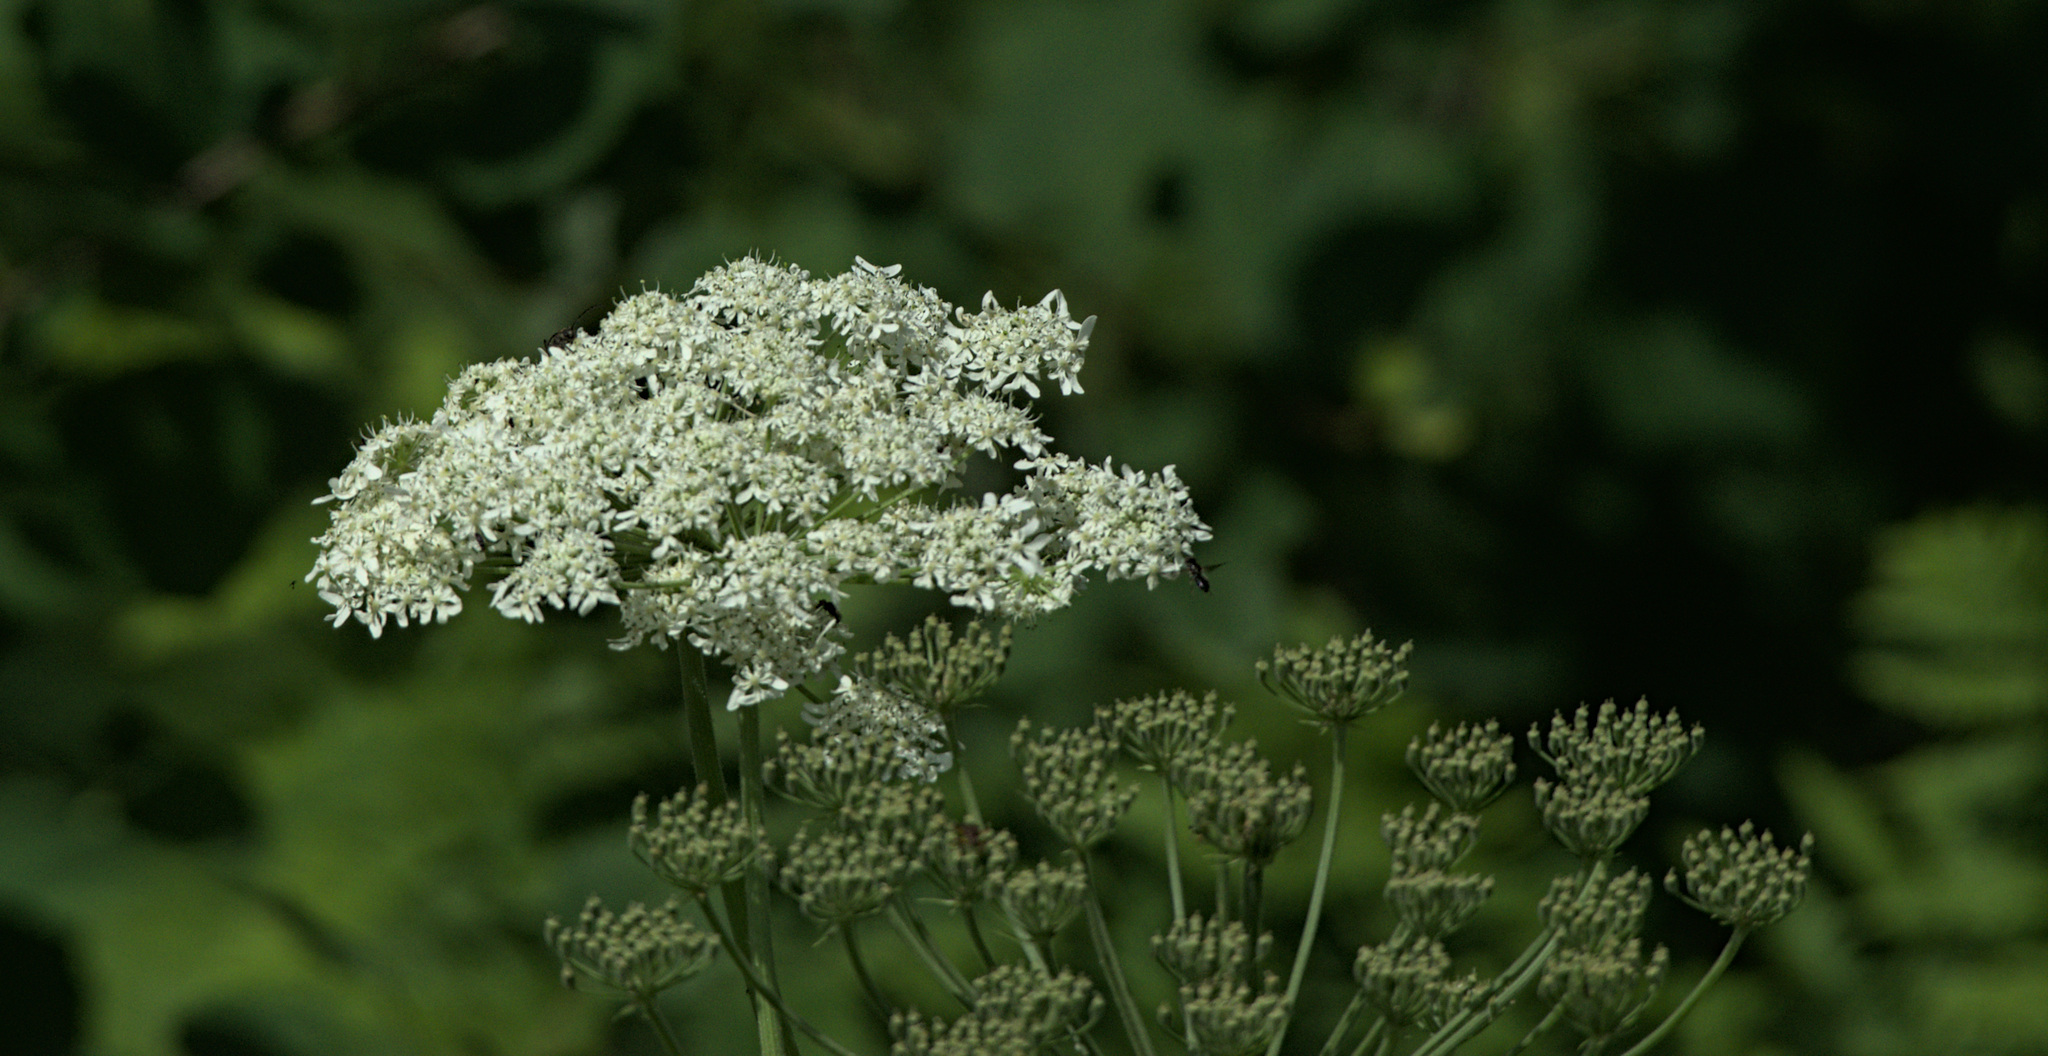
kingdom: Plantae
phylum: Tracheophyta
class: Magnoliopsida
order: Apiales
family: Apiaceae
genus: Heracleum
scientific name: Heracleum dissectum
